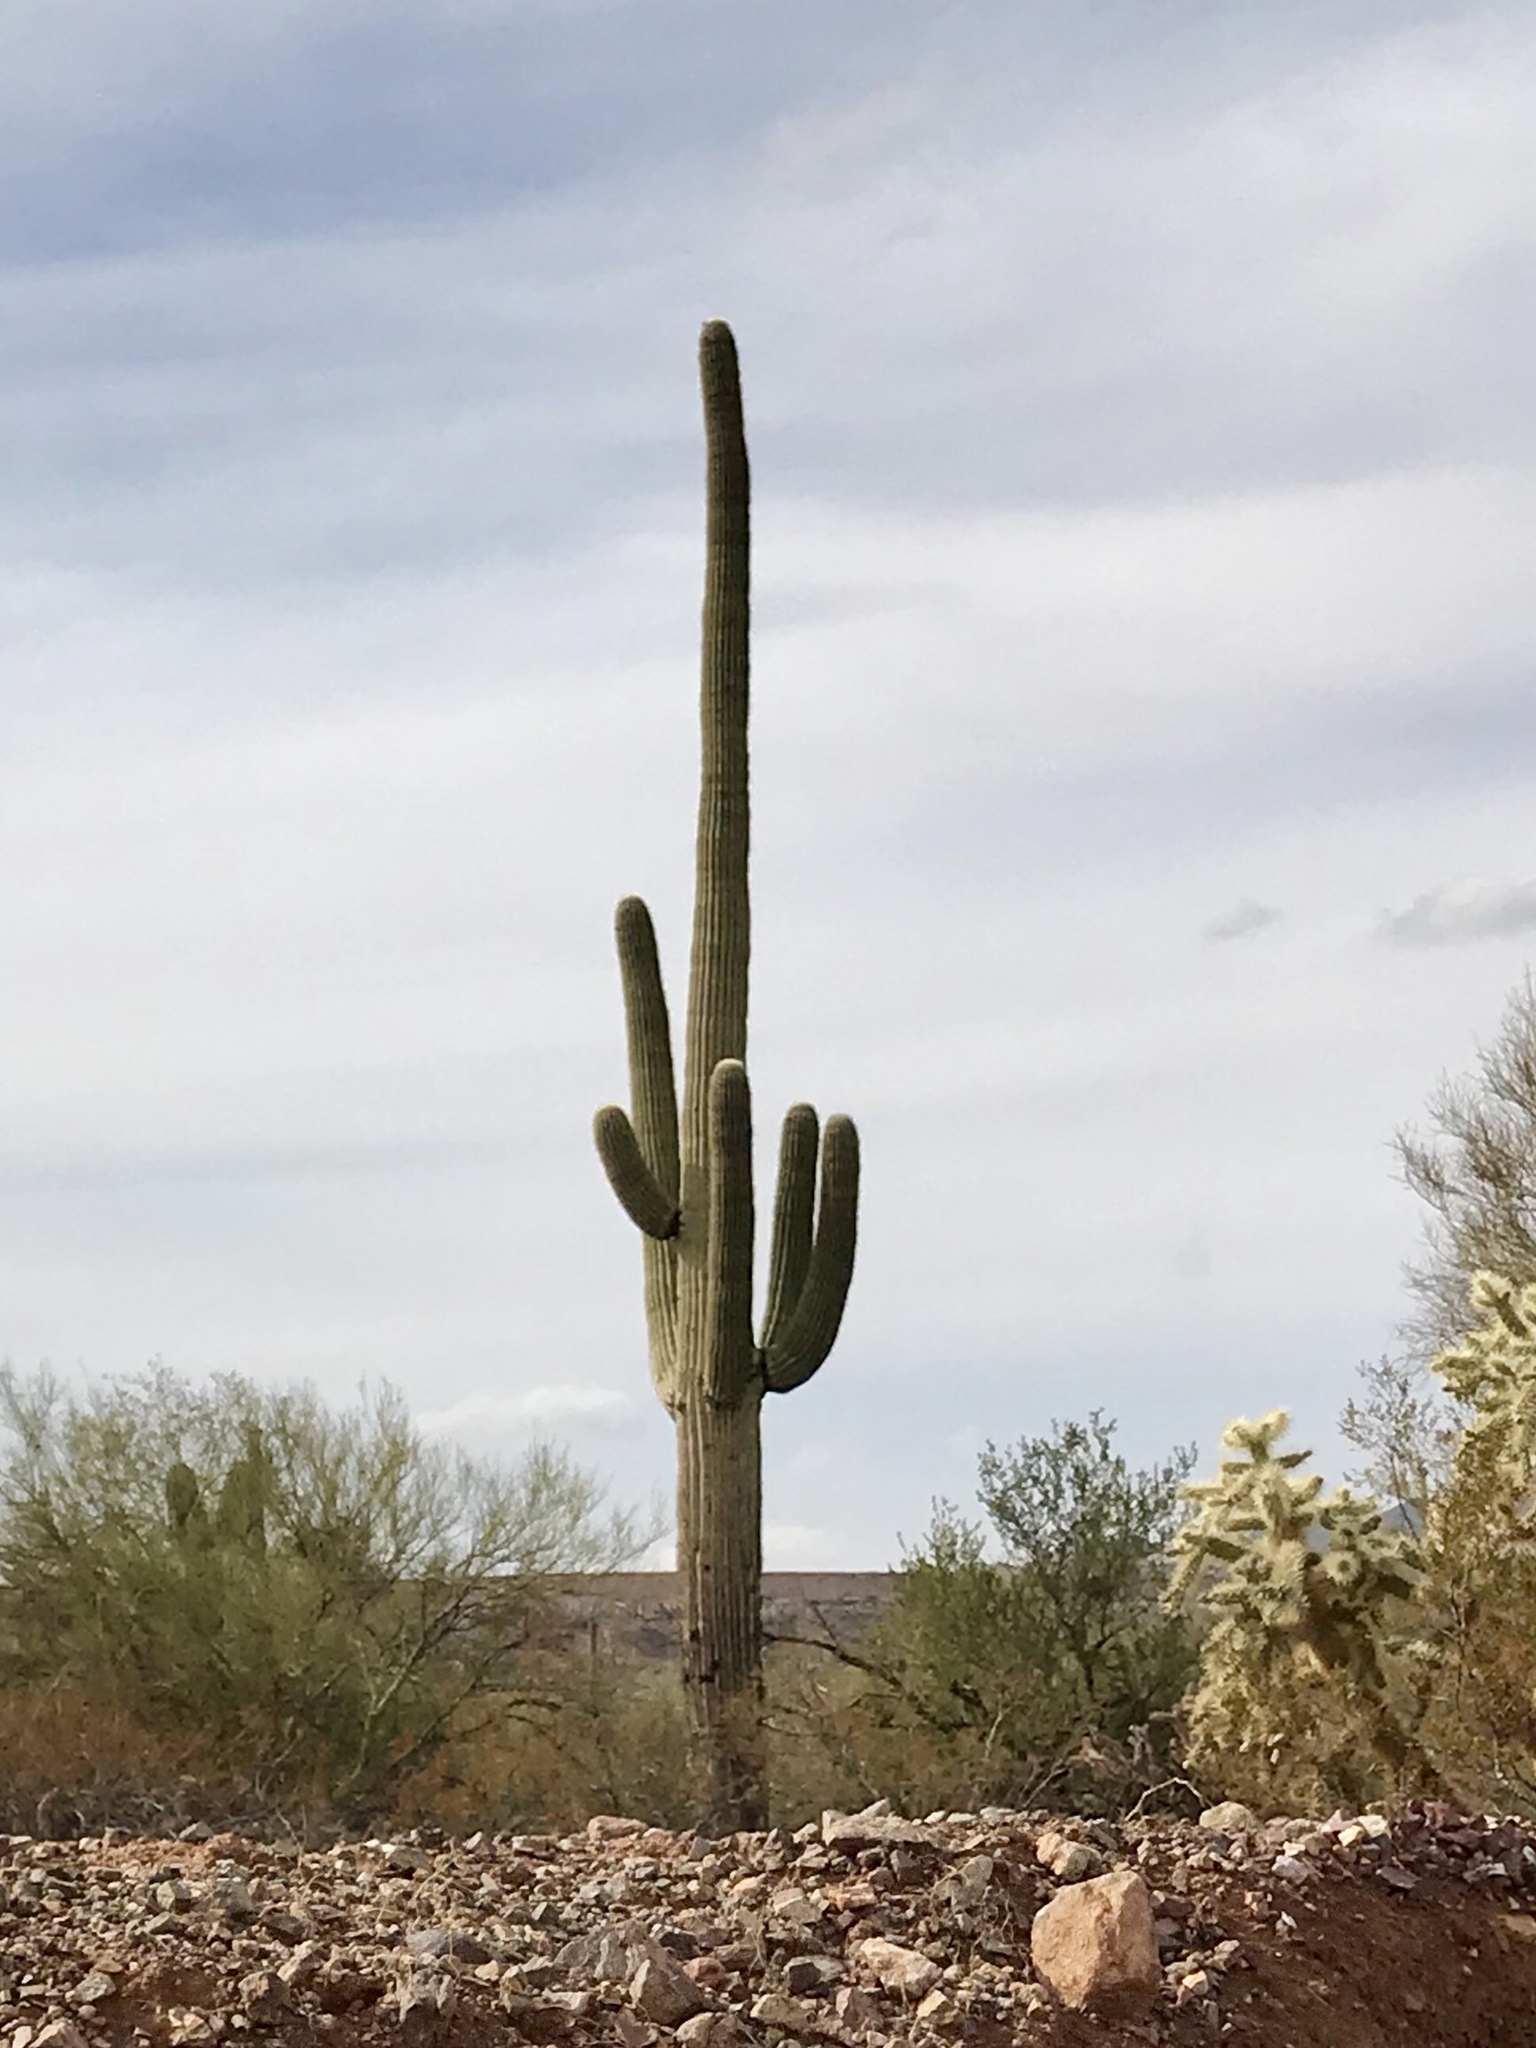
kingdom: Plantae
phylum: Tracheophyta
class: Magnoliopsida
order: Caryophyllales
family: Cactaceae
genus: Carnegiea
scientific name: Carnegiea gigantea
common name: Saguaro
